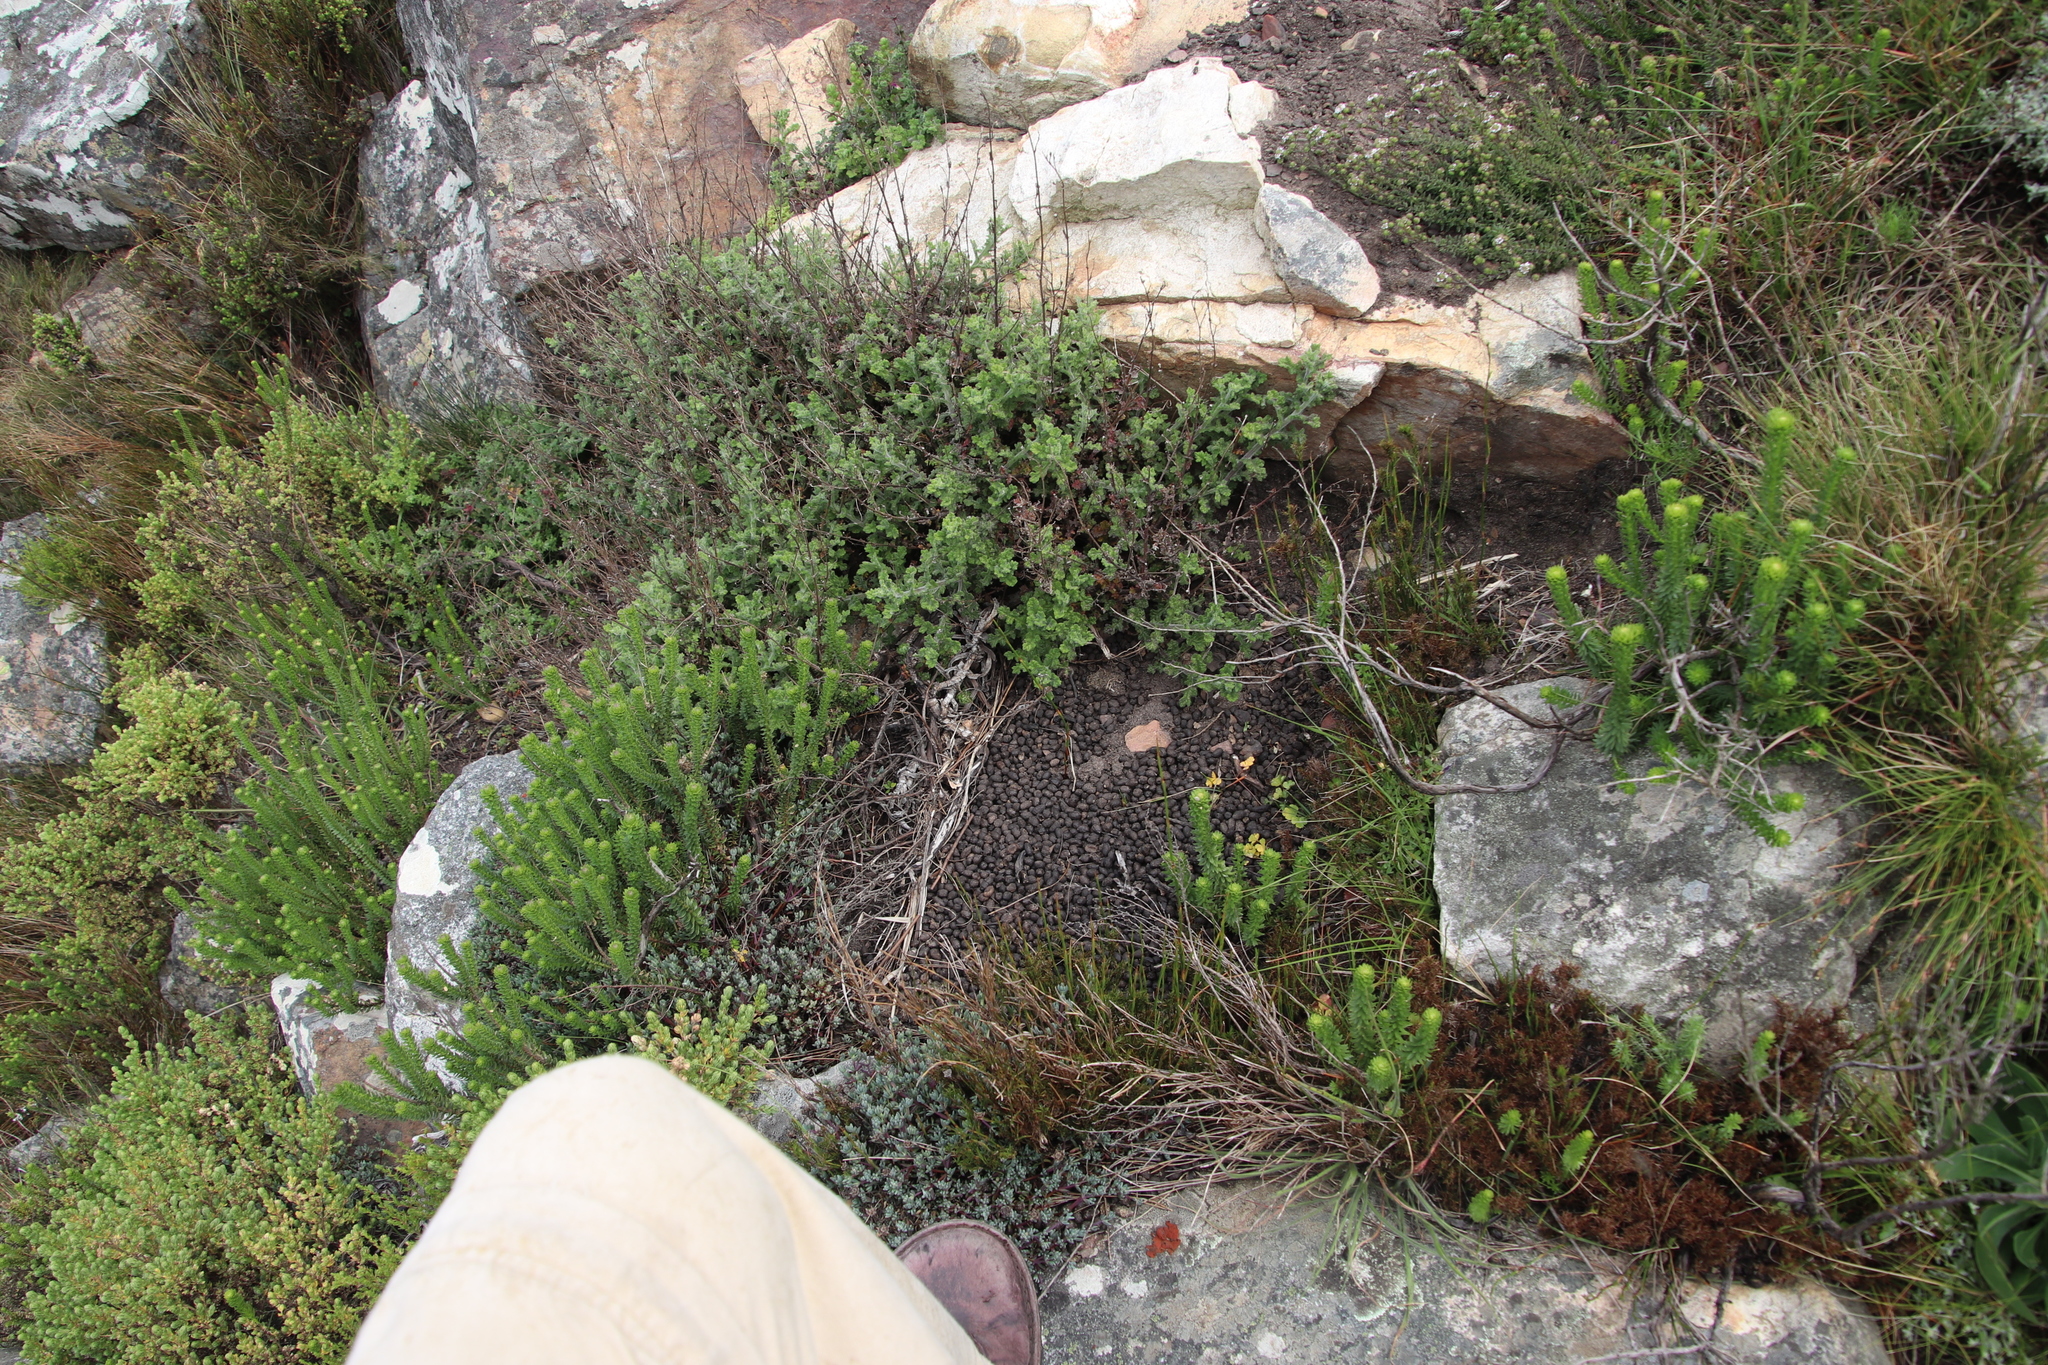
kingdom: Animalia
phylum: Chordata
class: Mammalia
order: Artiodactyla
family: Bovidae
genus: Oreotragus
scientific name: Oreotragus oreotragus
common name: Klipspringer
